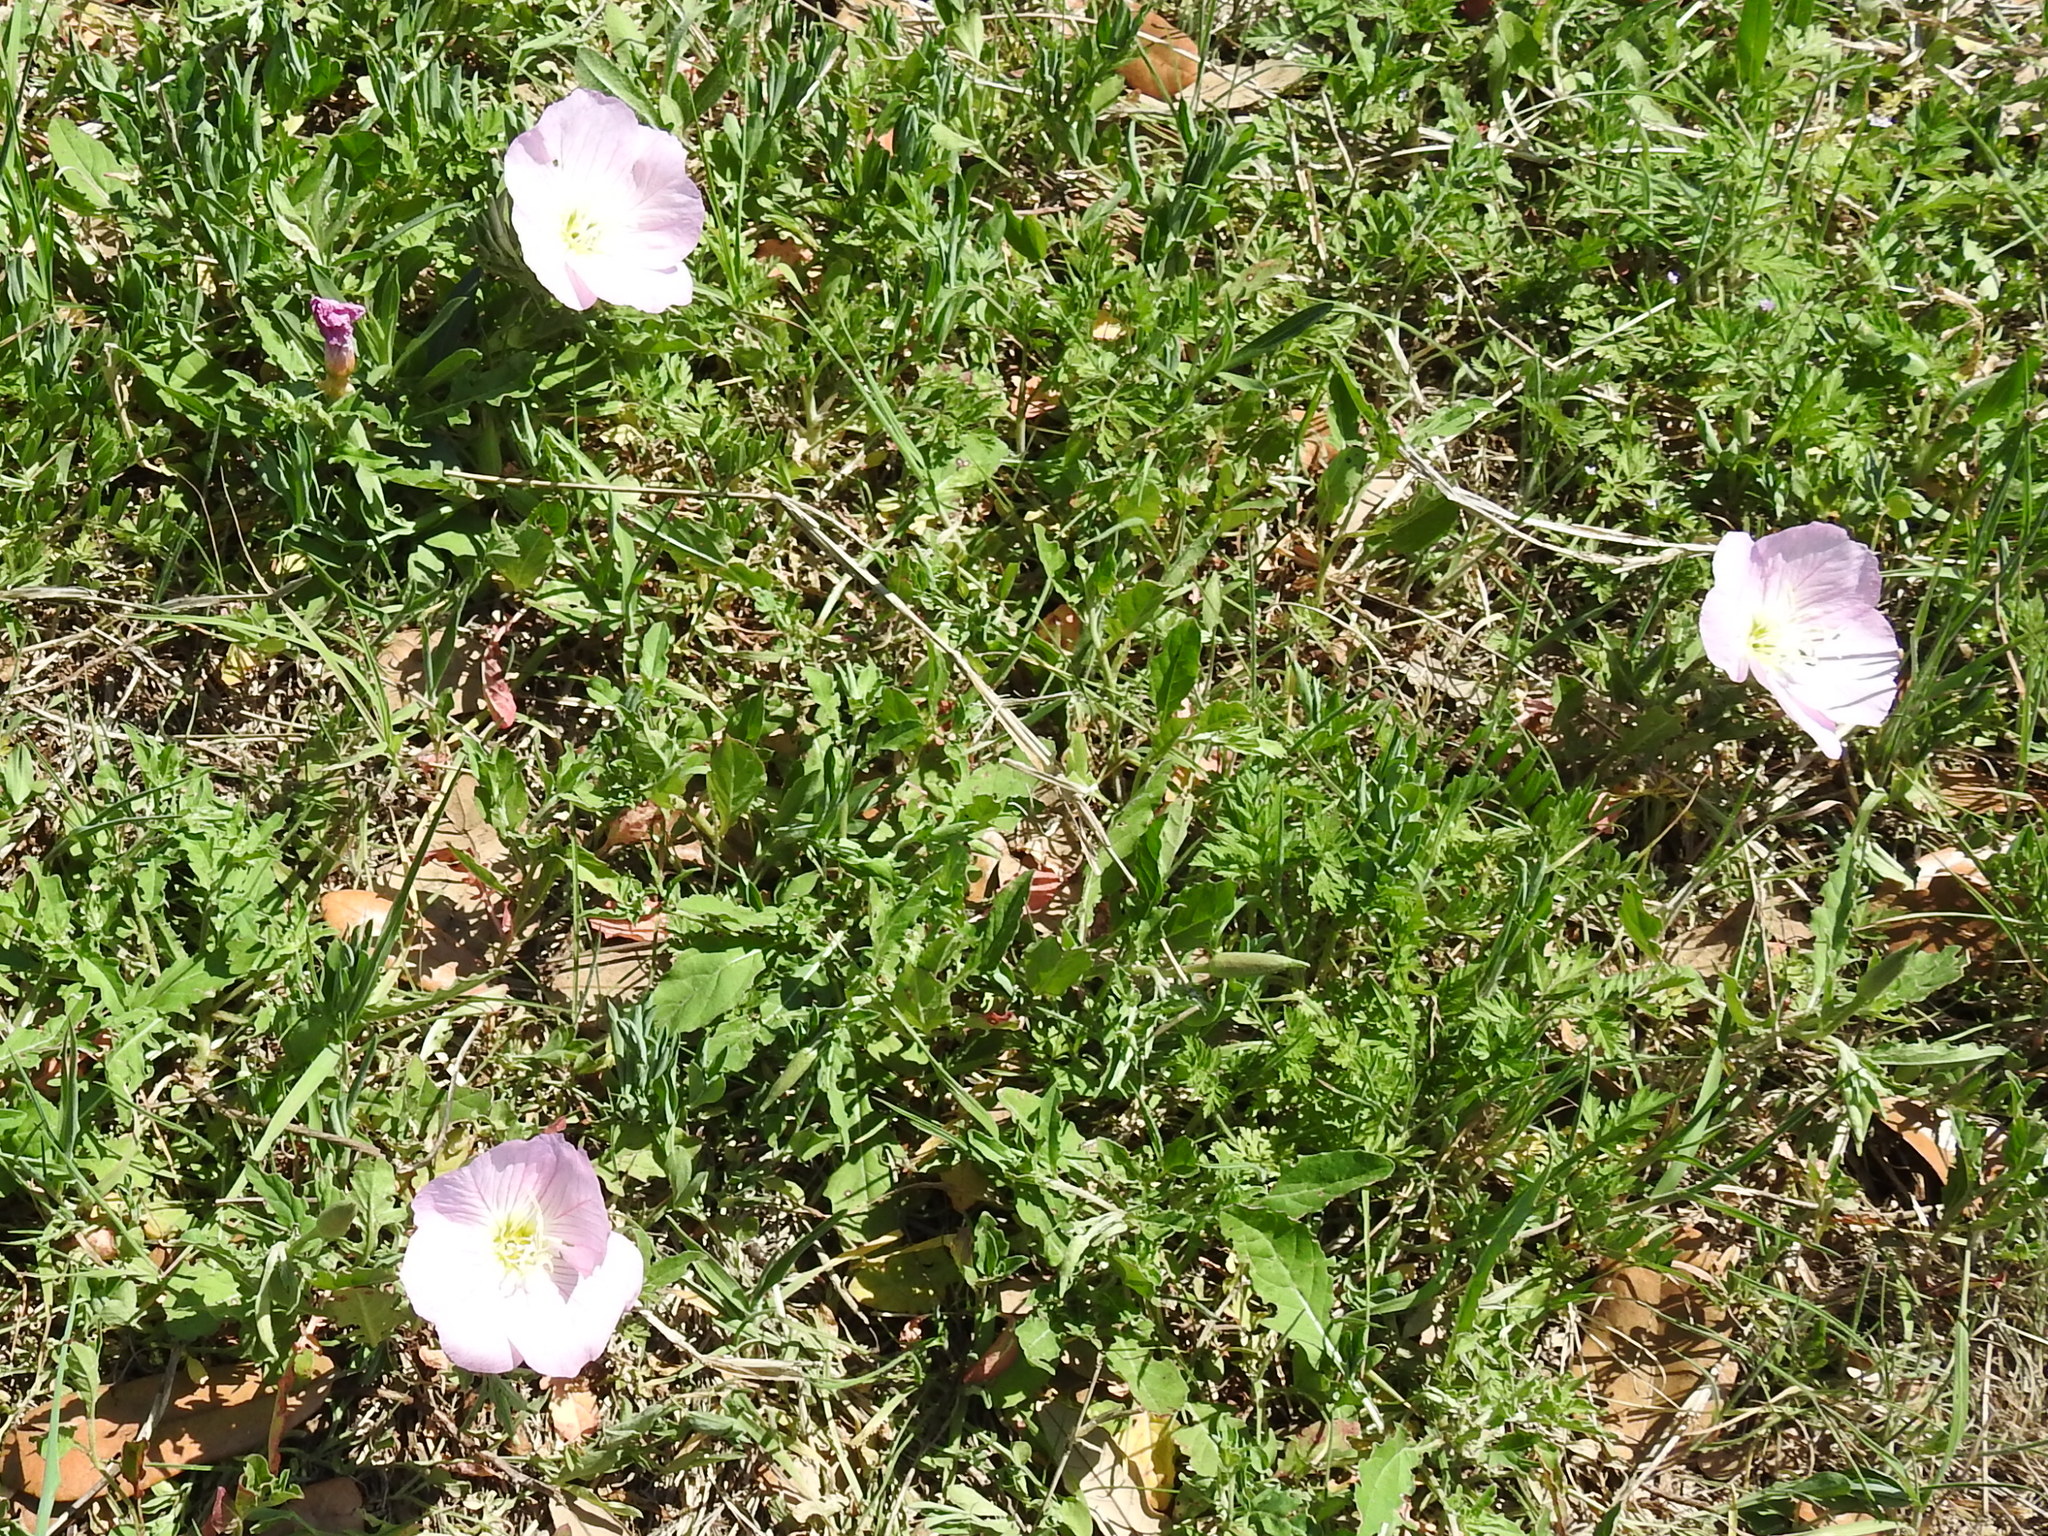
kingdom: Plantae
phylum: Tracheophyta
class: Magnoliopsida
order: Myrtales
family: Onagraceae
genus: Oenothera
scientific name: Oenothera speciosa
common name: White evening-primrose
